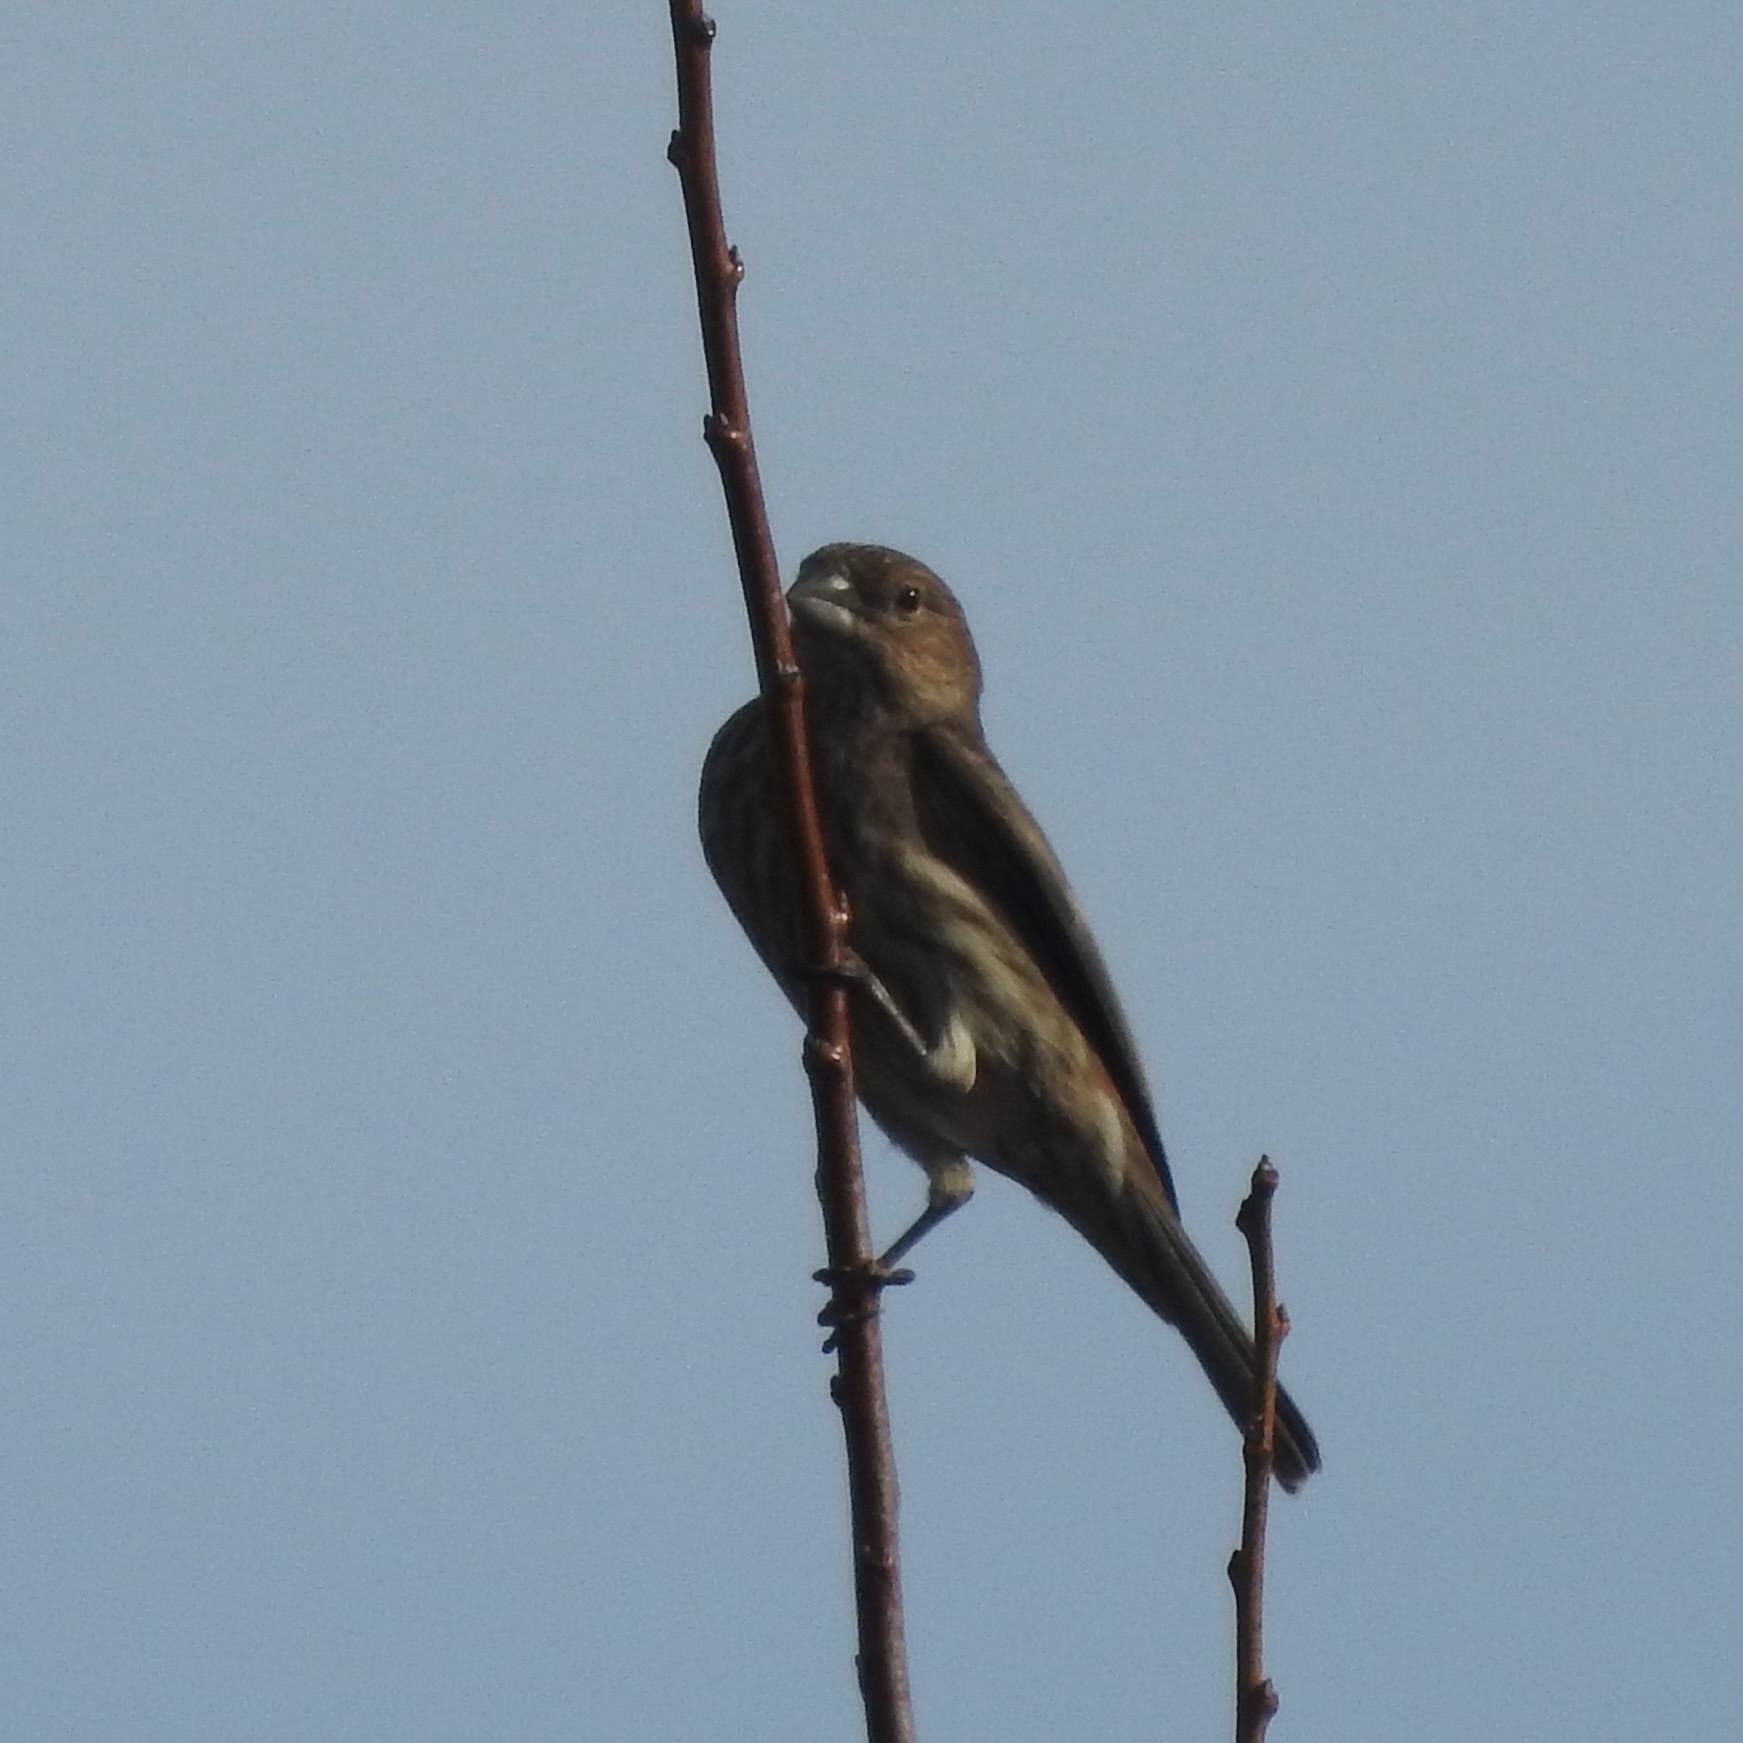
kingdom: Animalia
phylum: Chordata
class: Aves
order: Passeriformes
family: Fringillidae
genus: Haemorhous
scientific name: Haemorhous mexicanus
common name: House finch
